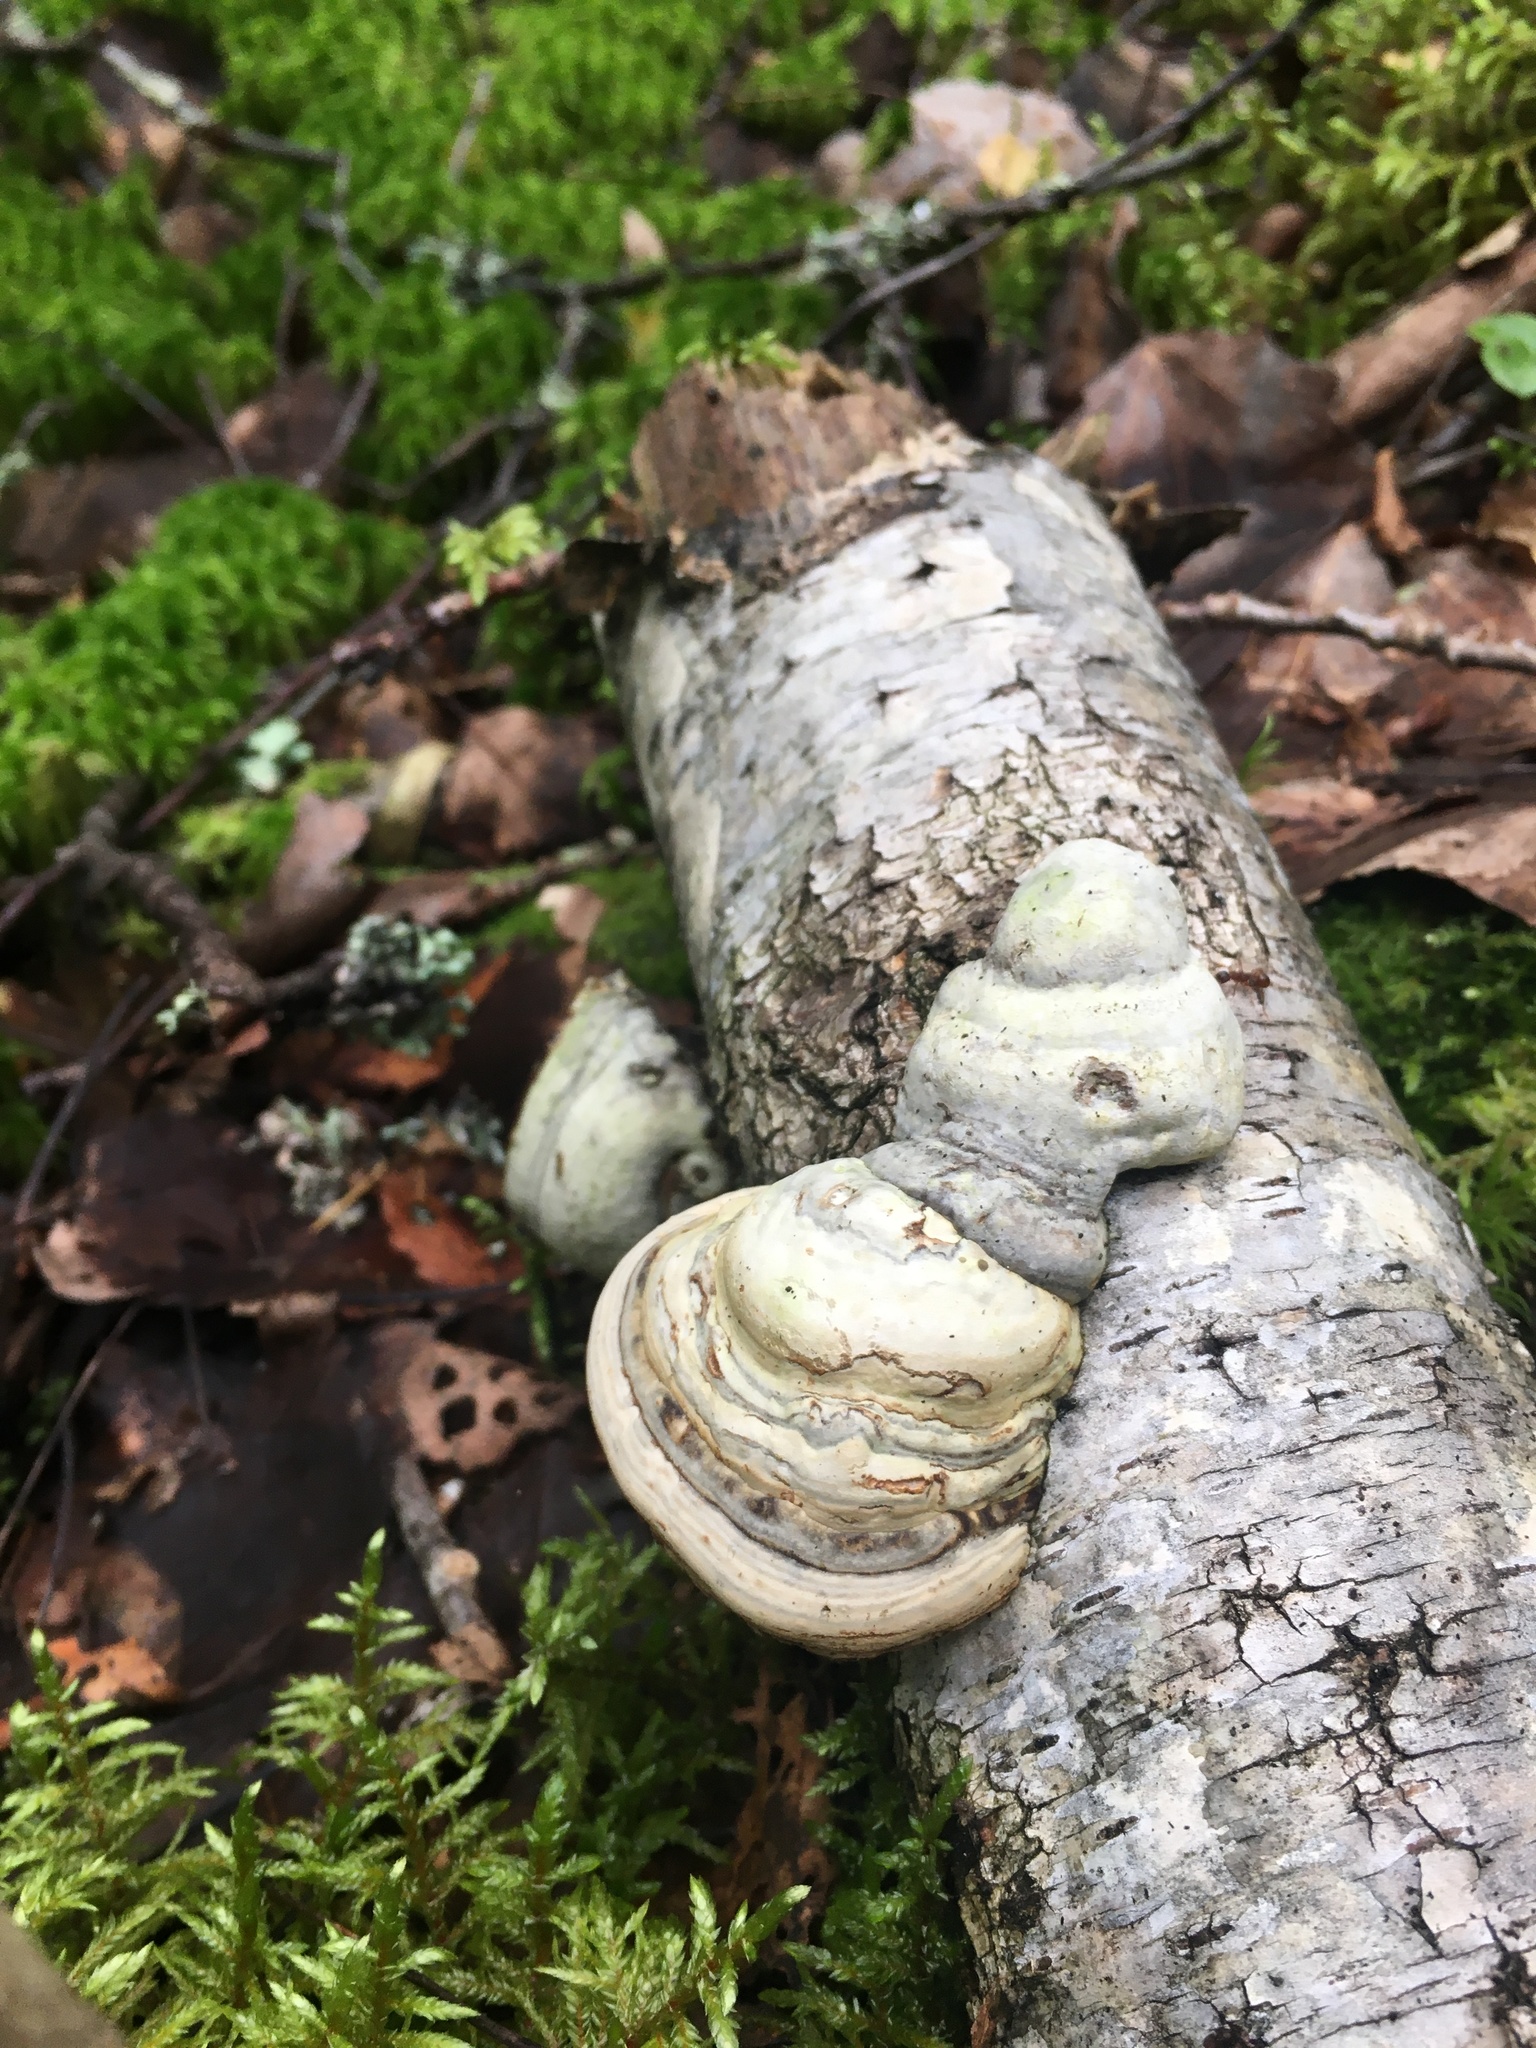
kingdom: Fungi
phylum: Basidiomycota
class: Agaricomycetes
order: Polyporales
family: Polyporaceae
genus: Fomes
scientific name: Fomes fomentarius
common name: Hoof fungus
